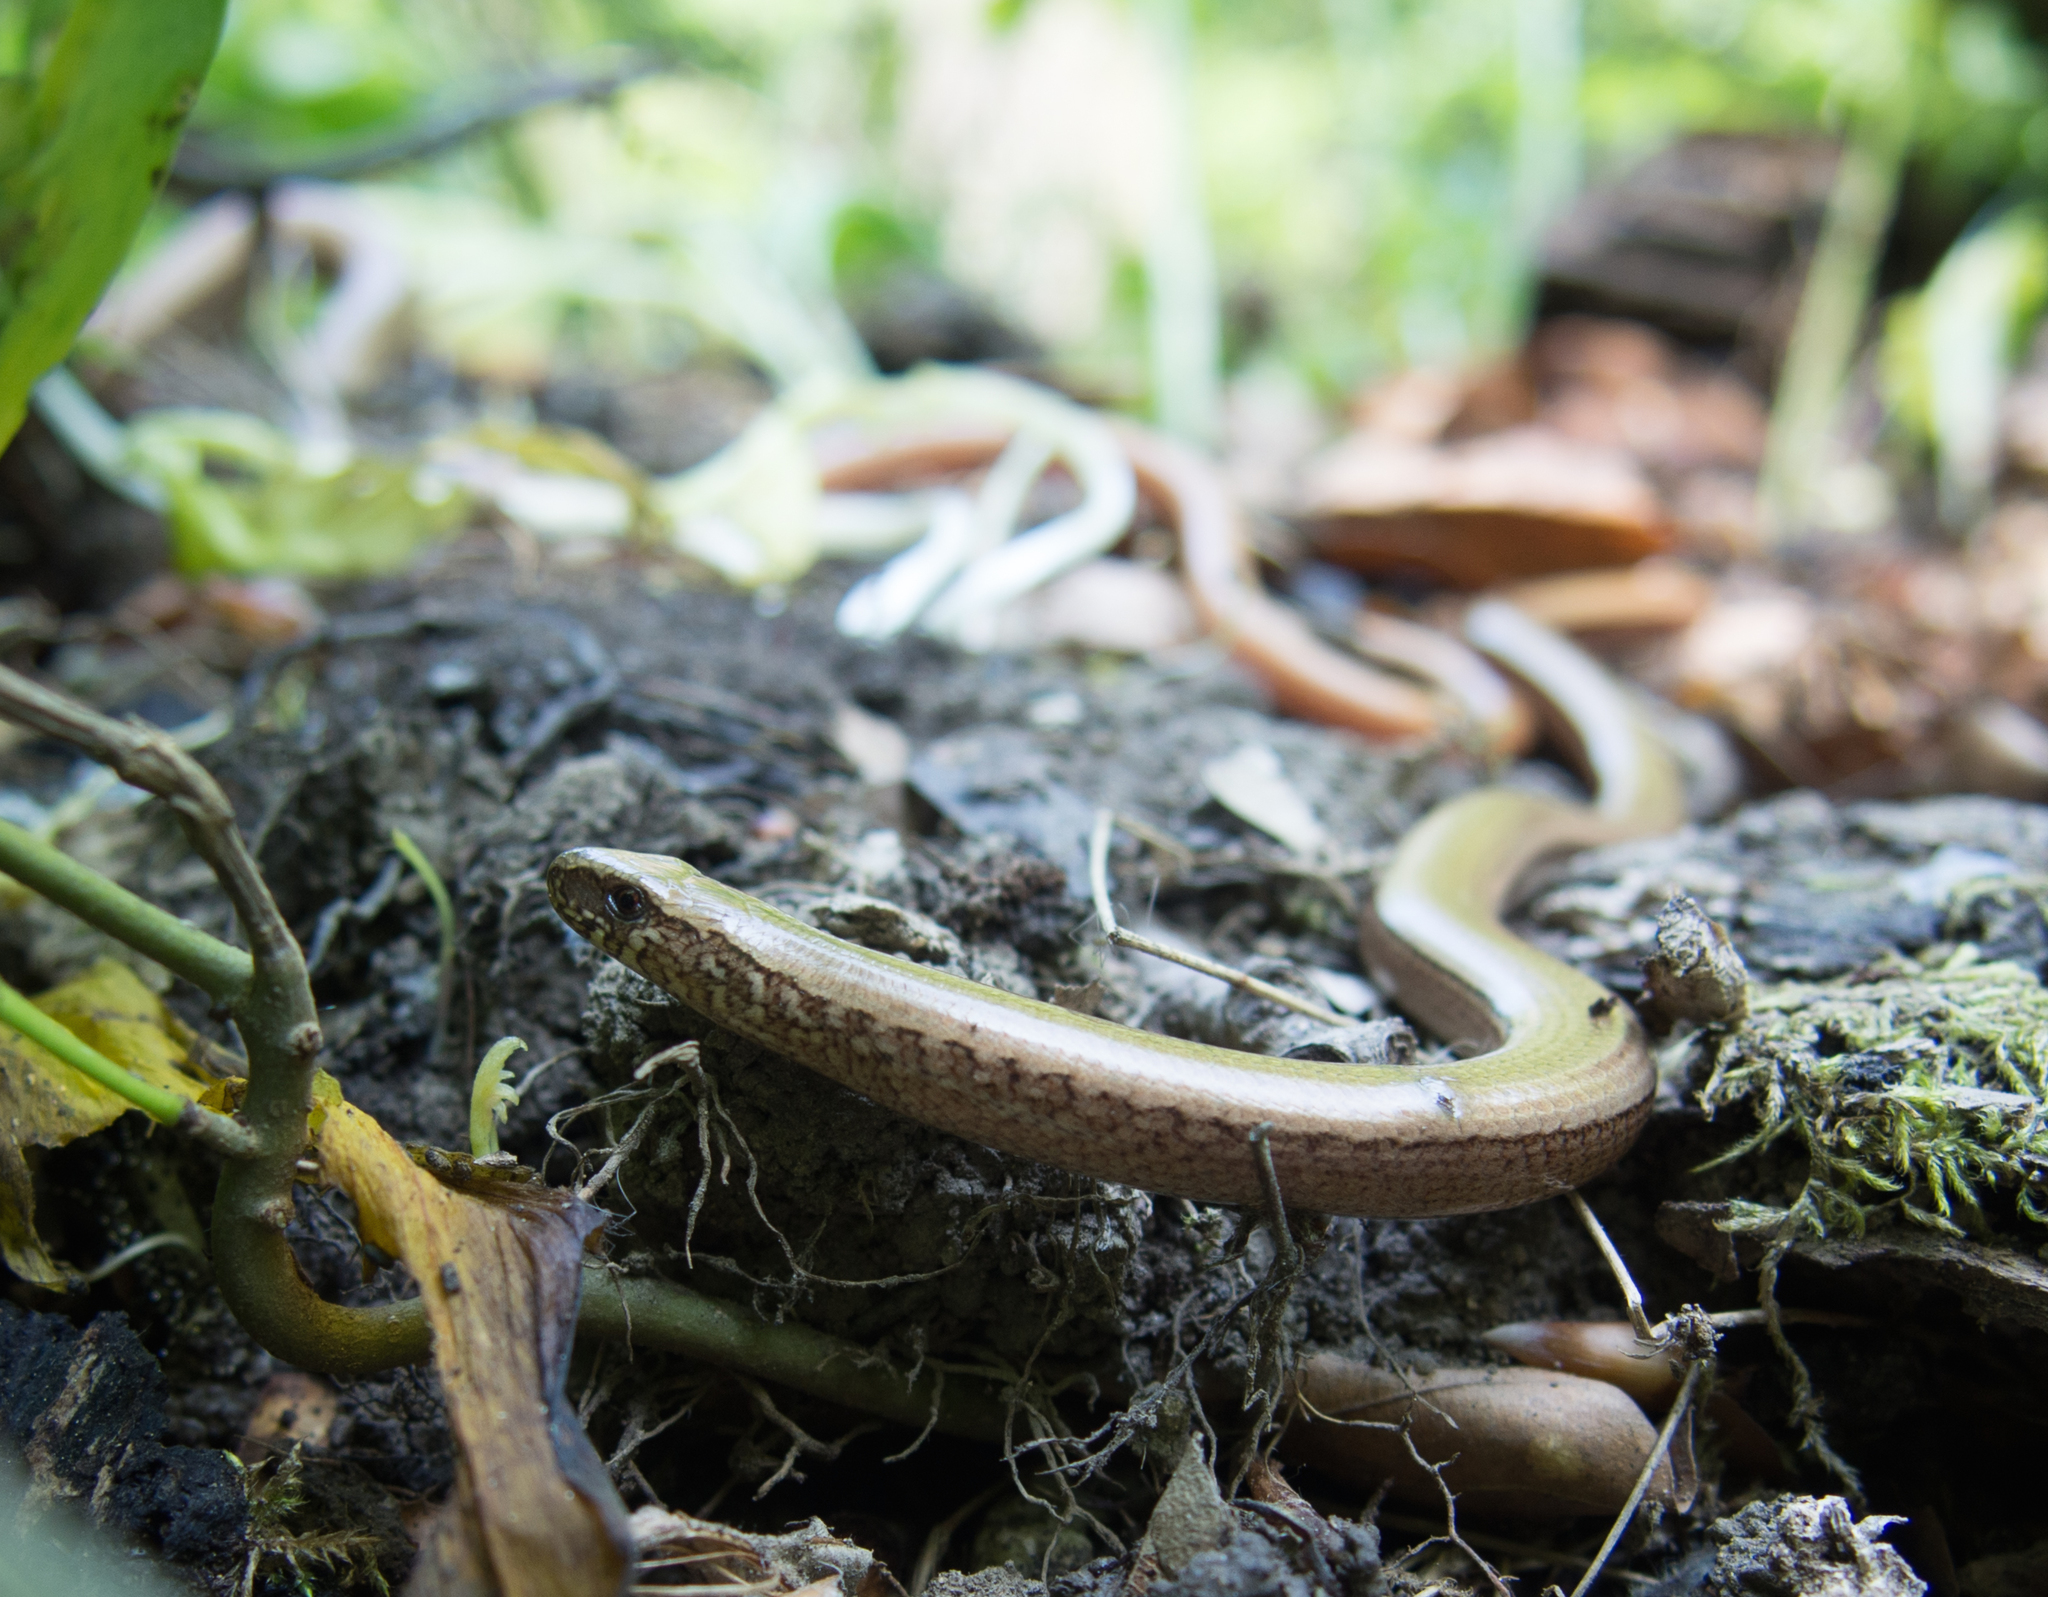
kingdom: Animalia
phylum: Chordata
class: Squamata
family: Anguidae
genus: Anguis
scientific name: Anguis fragilis
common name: Slow worm
